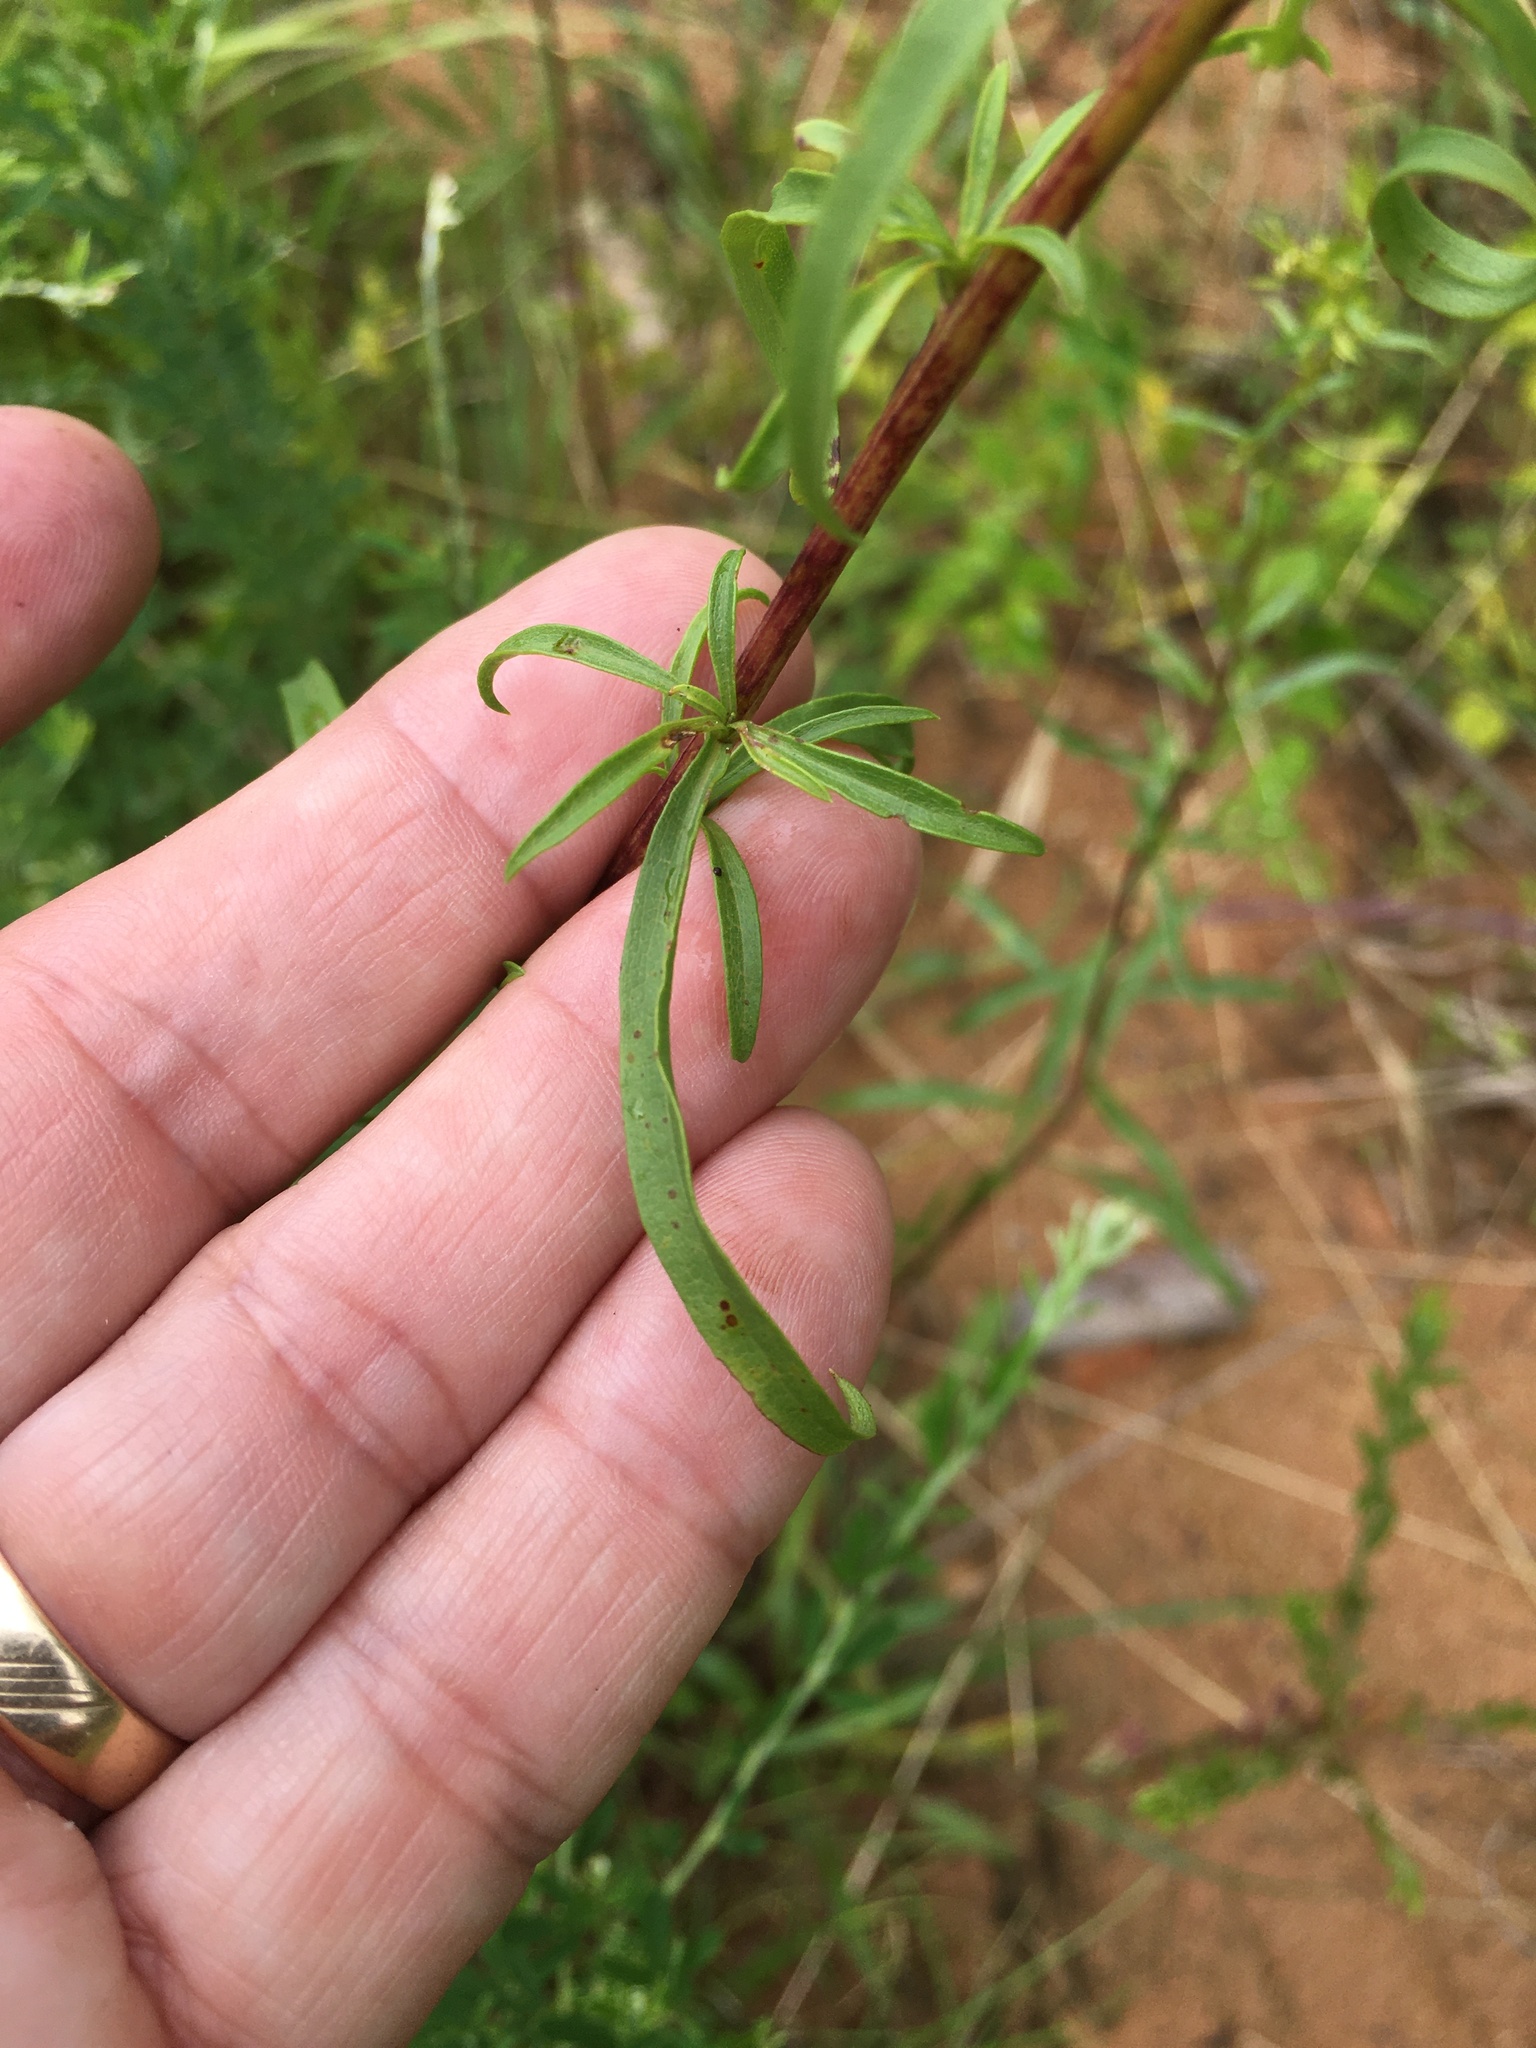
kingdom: Plantae
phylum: Tracheophyta
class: Magnoliopsida
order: Asterales
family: Asteraceae
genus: Solidago
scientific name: Solidago pinetorum
